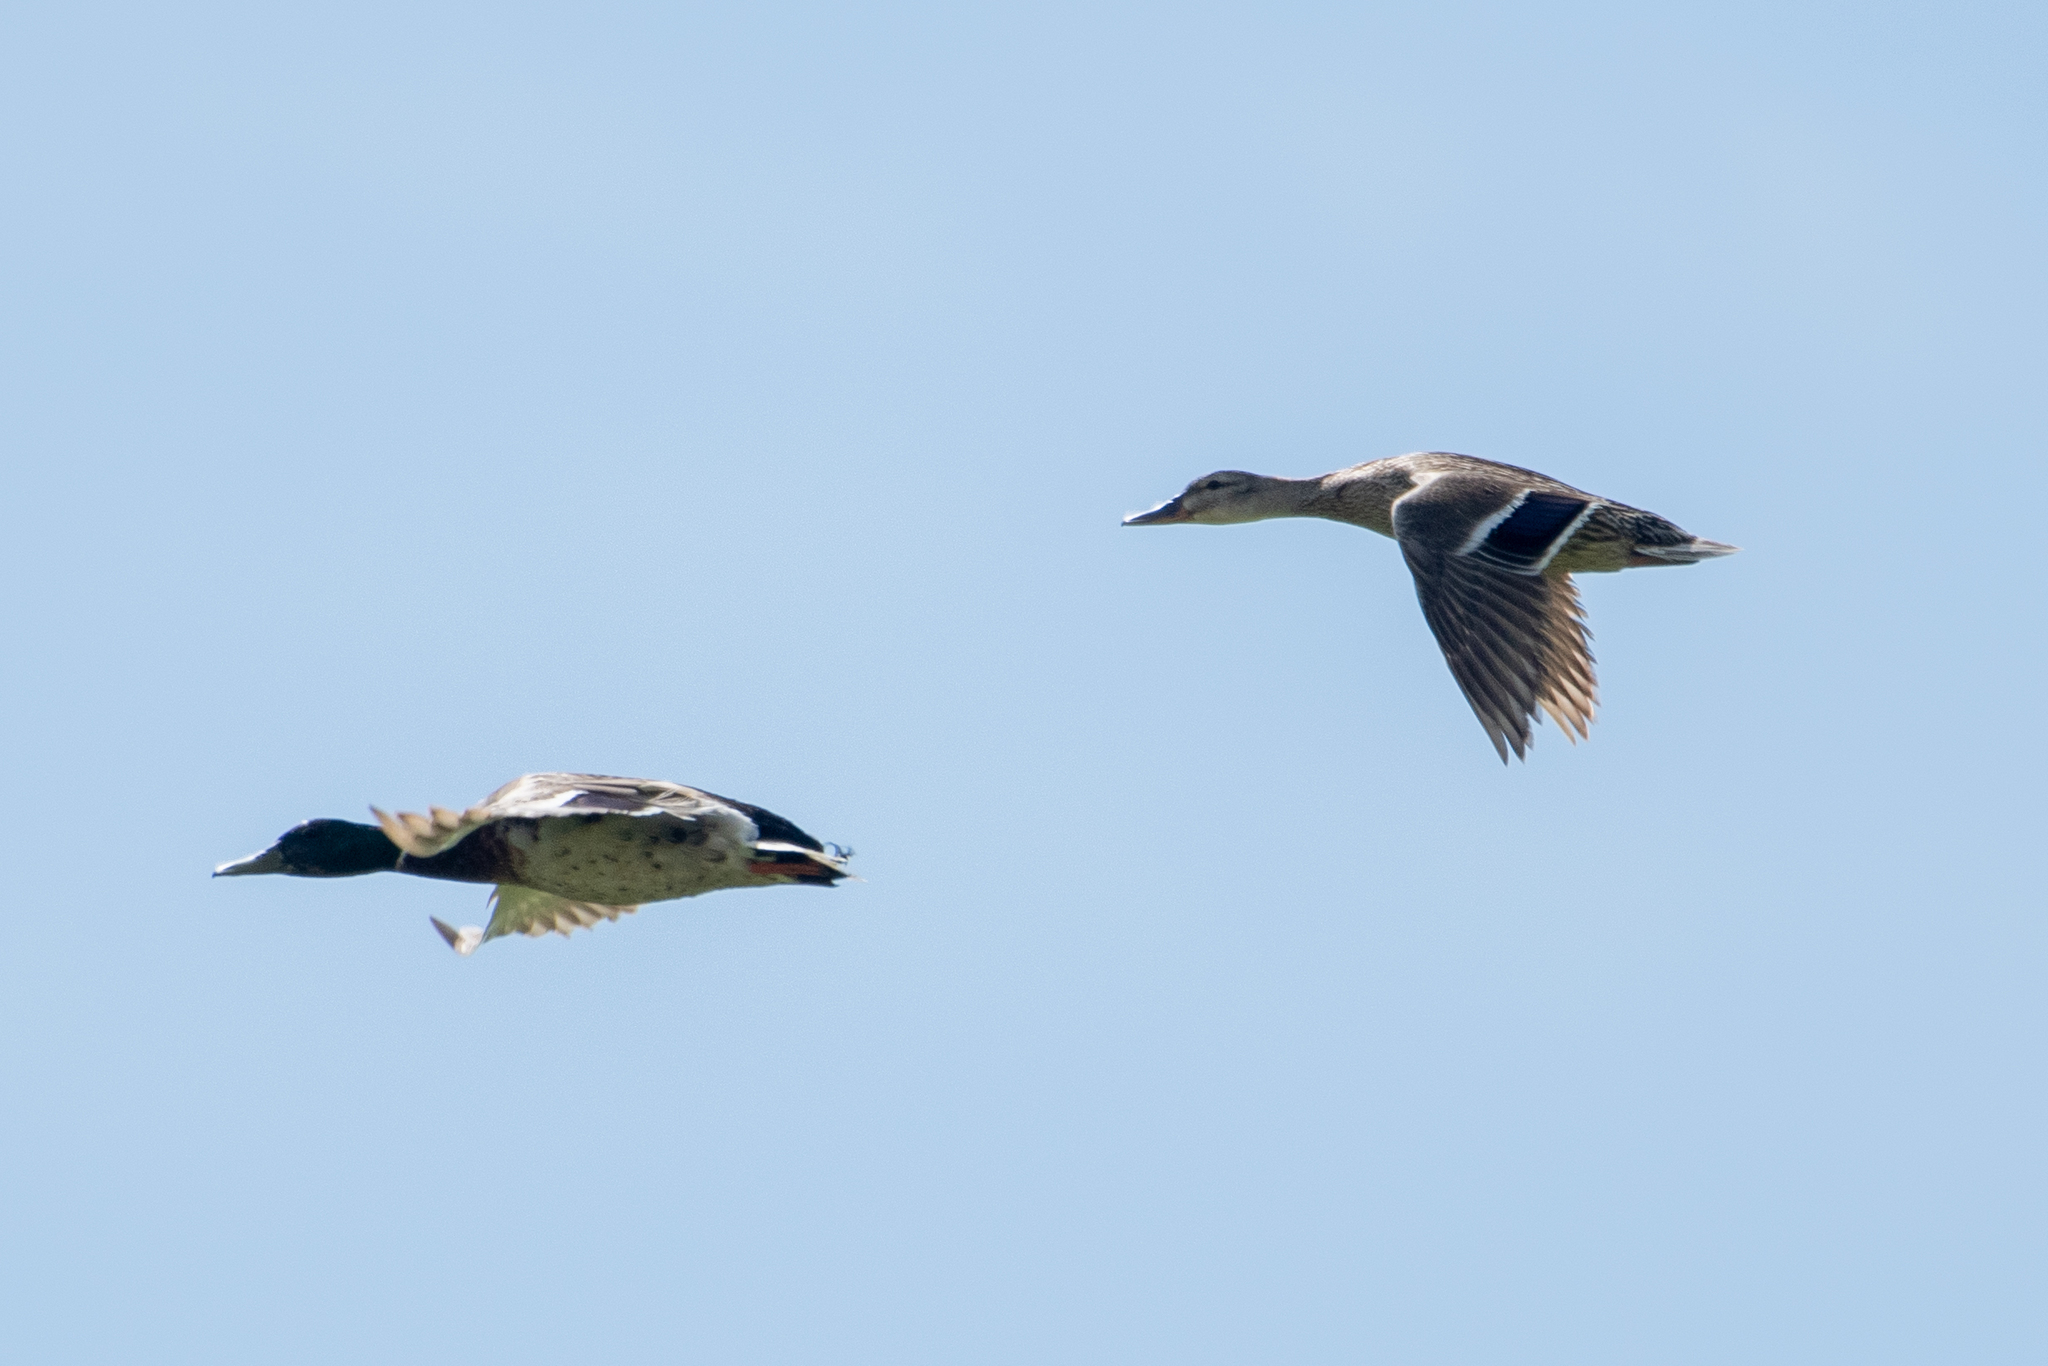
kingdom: Animalia
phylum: Chordata
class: Aves
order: Anseriformes
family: Anatidae
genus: Anas
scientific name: Anas platyrhynchos
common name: Mallard
